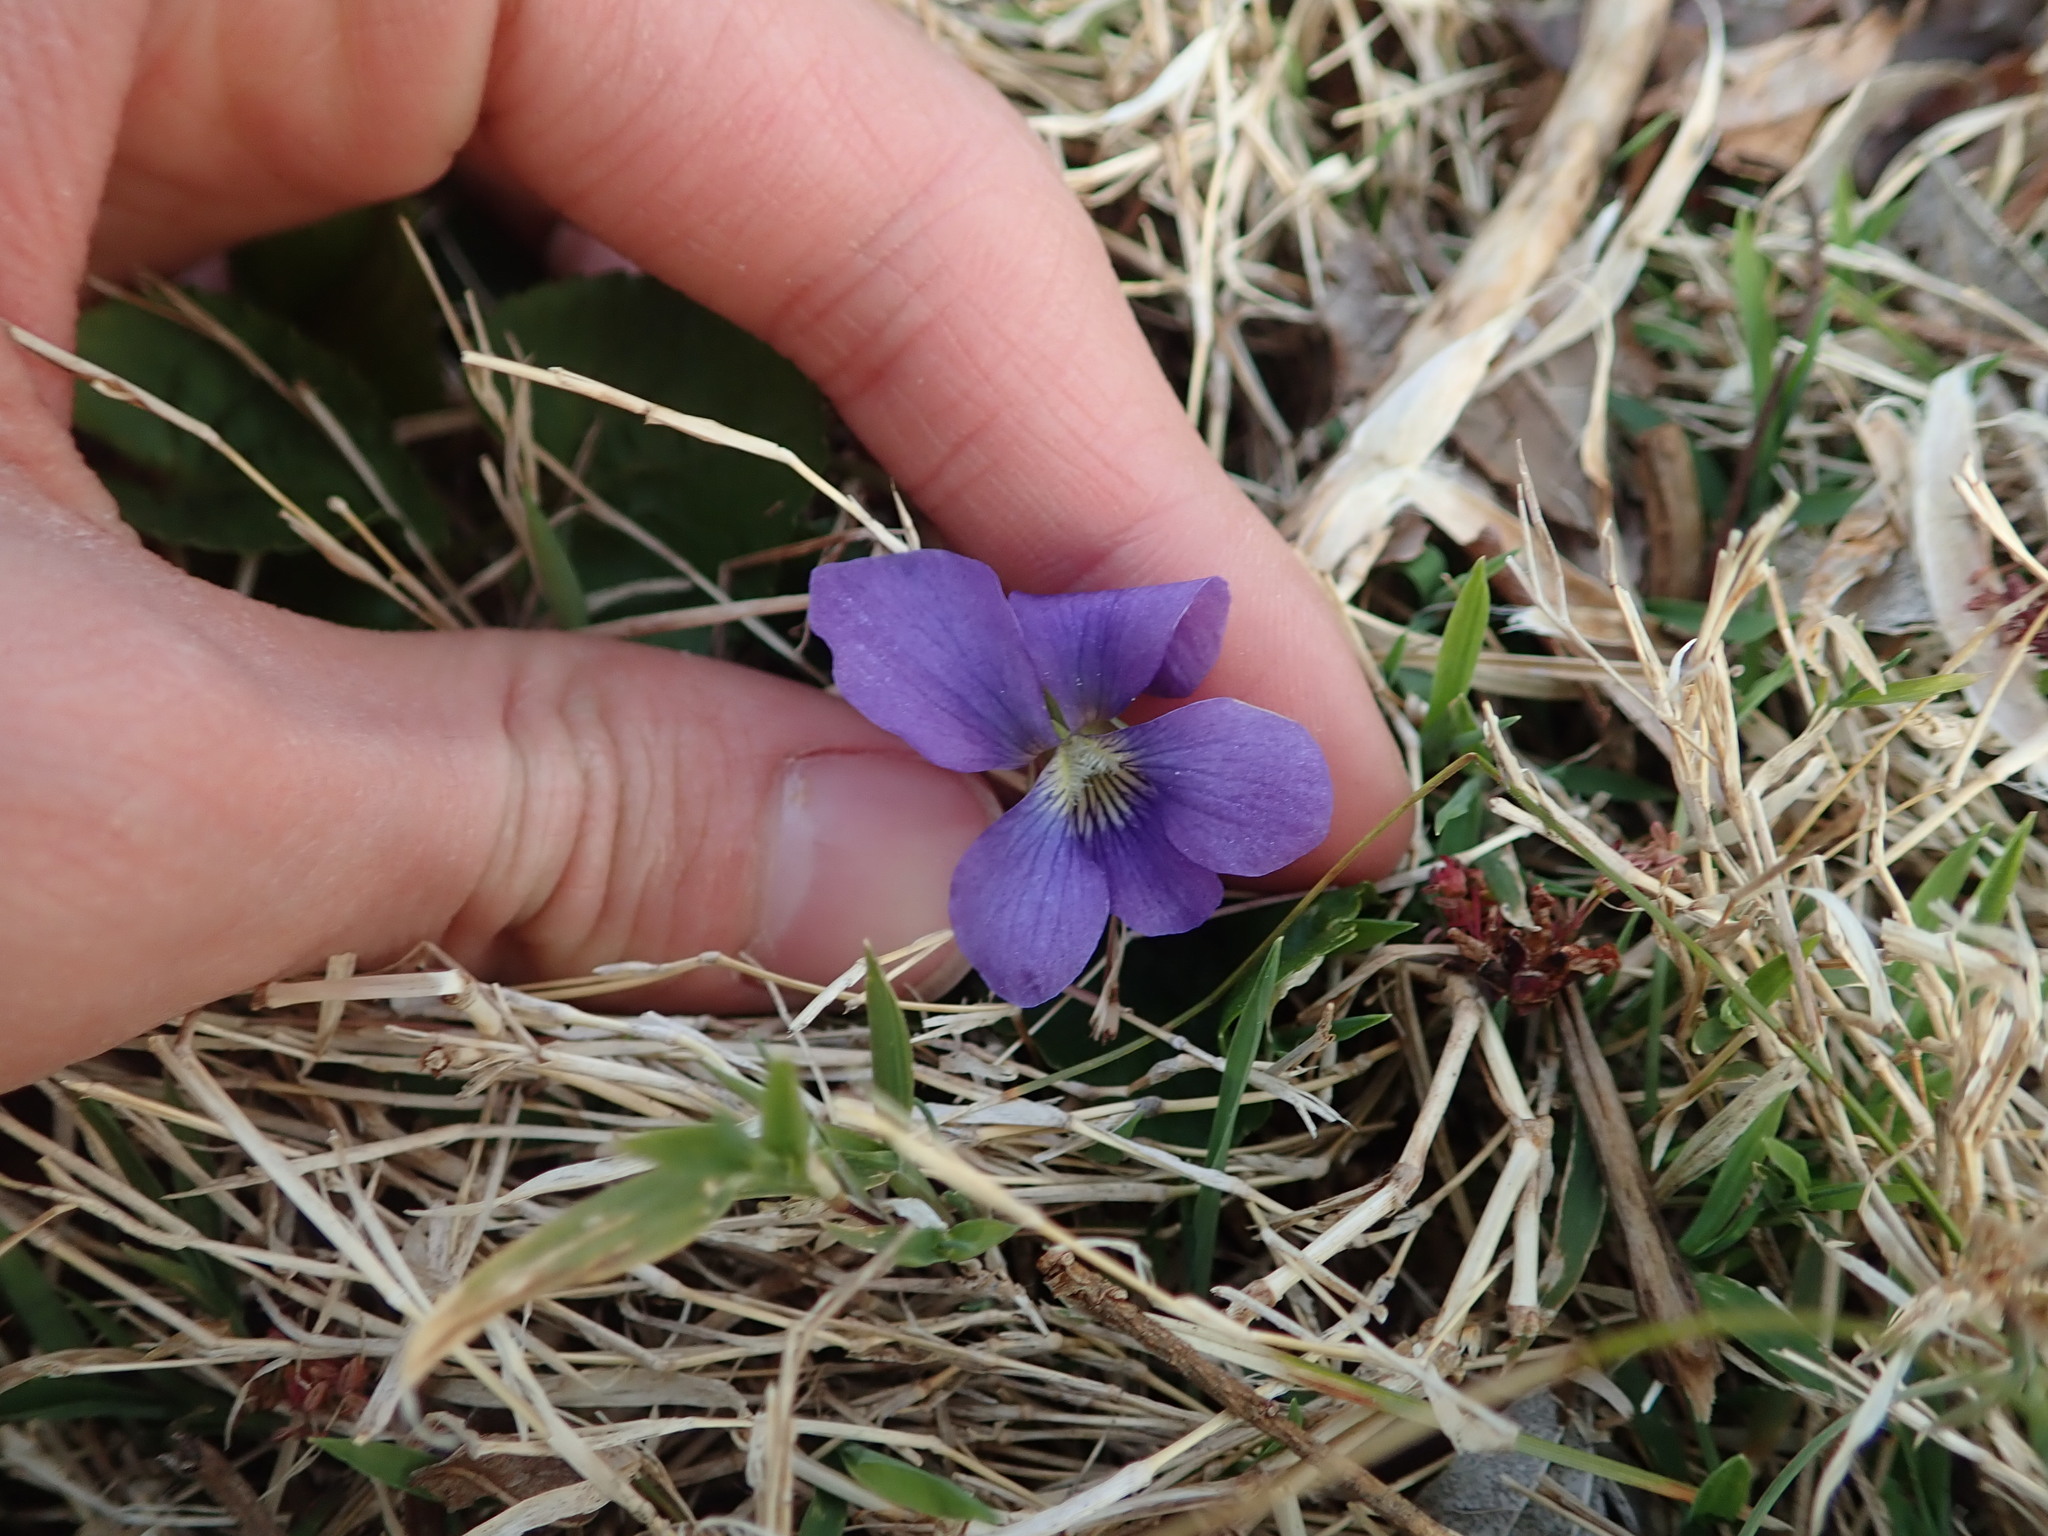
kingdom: Plantae
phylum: Tracheophyta
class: Magnoliopsida
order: Malpighiales
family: Violaceae
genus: Viola
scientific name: Viola sororia
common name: Dooryard violet
